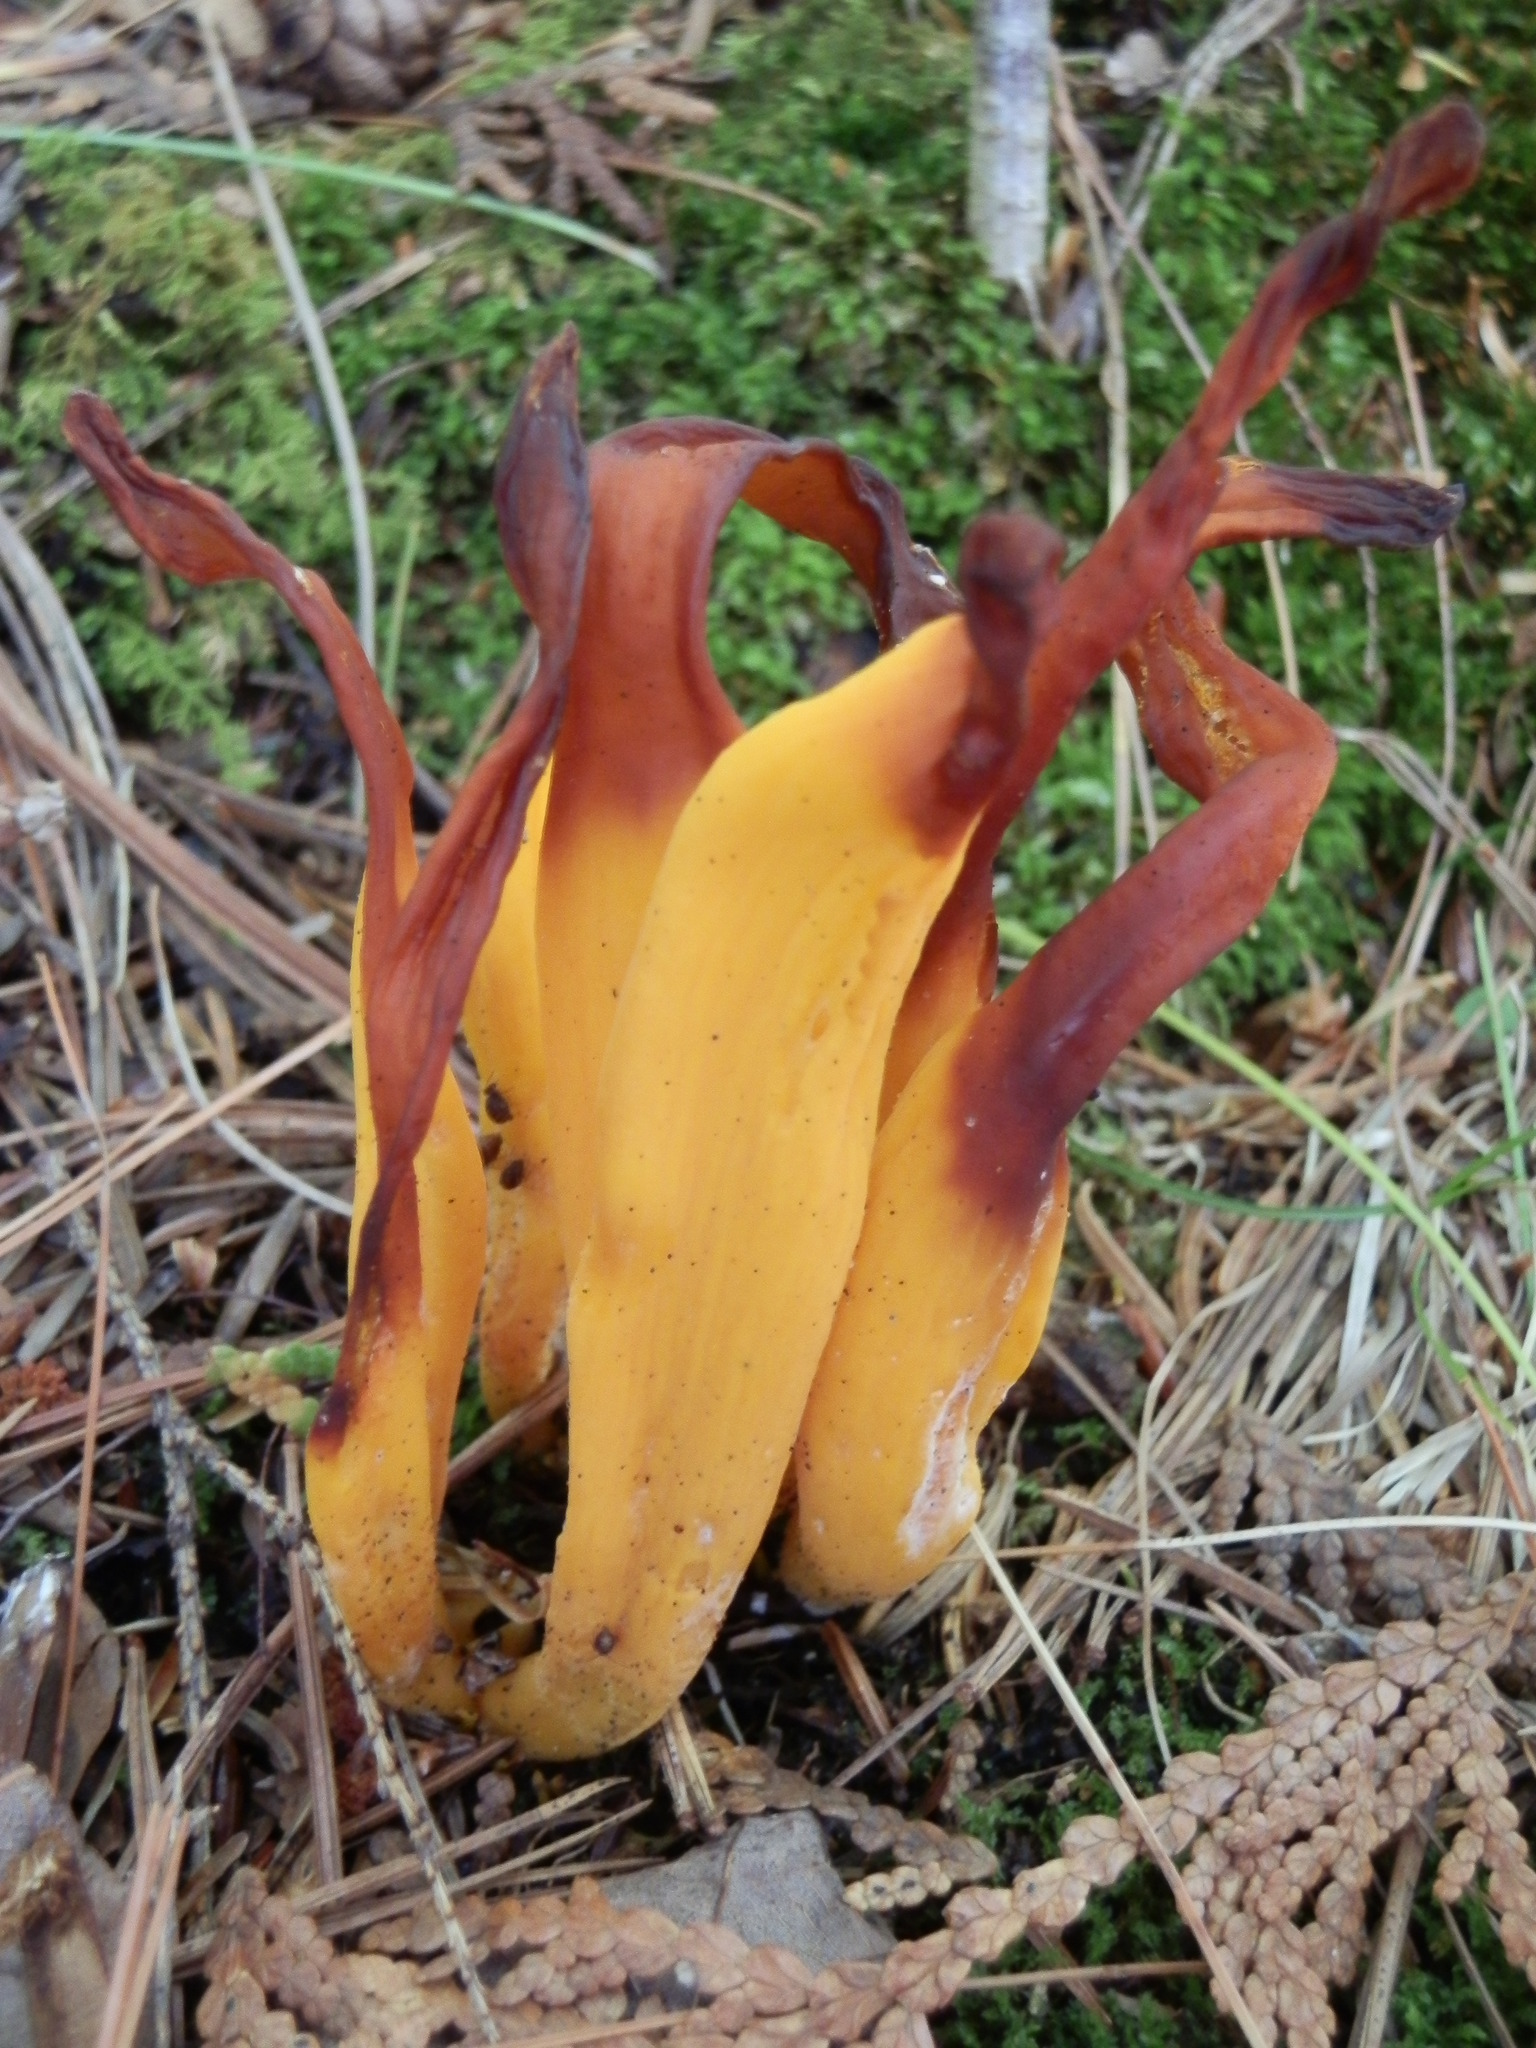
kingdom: Fungi
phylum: Basidiomycota
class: Agaricomycetes
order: Agaricales
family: Clavariaceae
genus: Clavulinopsis
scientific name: Clavulinopsis fusiformis
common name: Golden spindles
